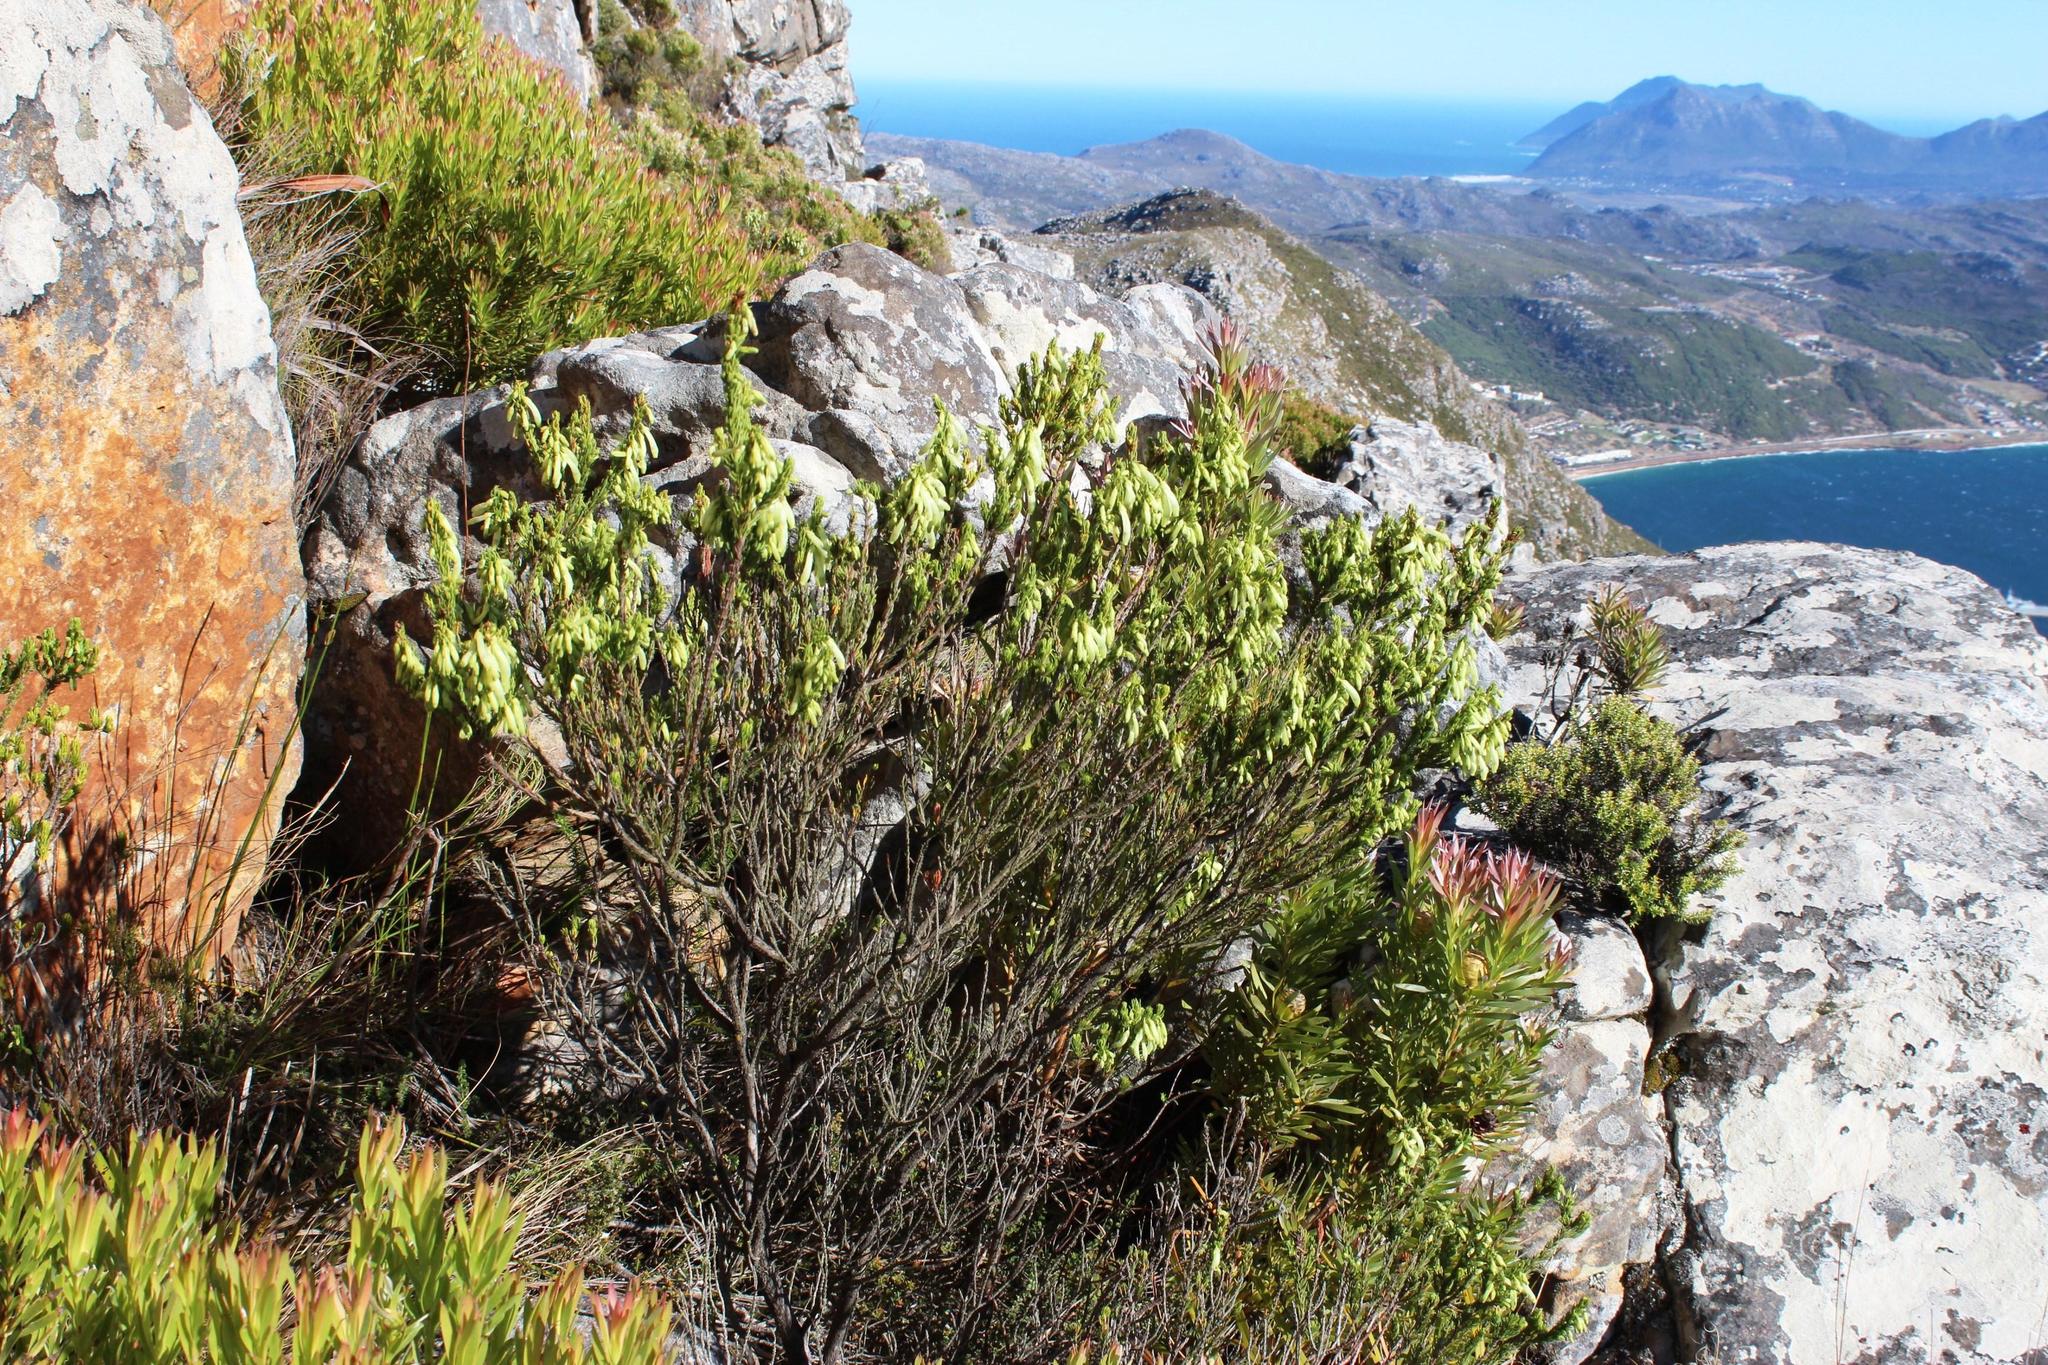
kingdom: Plantae
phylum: Tracheophyta
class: Magnoliopsida
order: Ericales
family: Ericaceae
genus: Erica
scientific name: Erica mammosa
